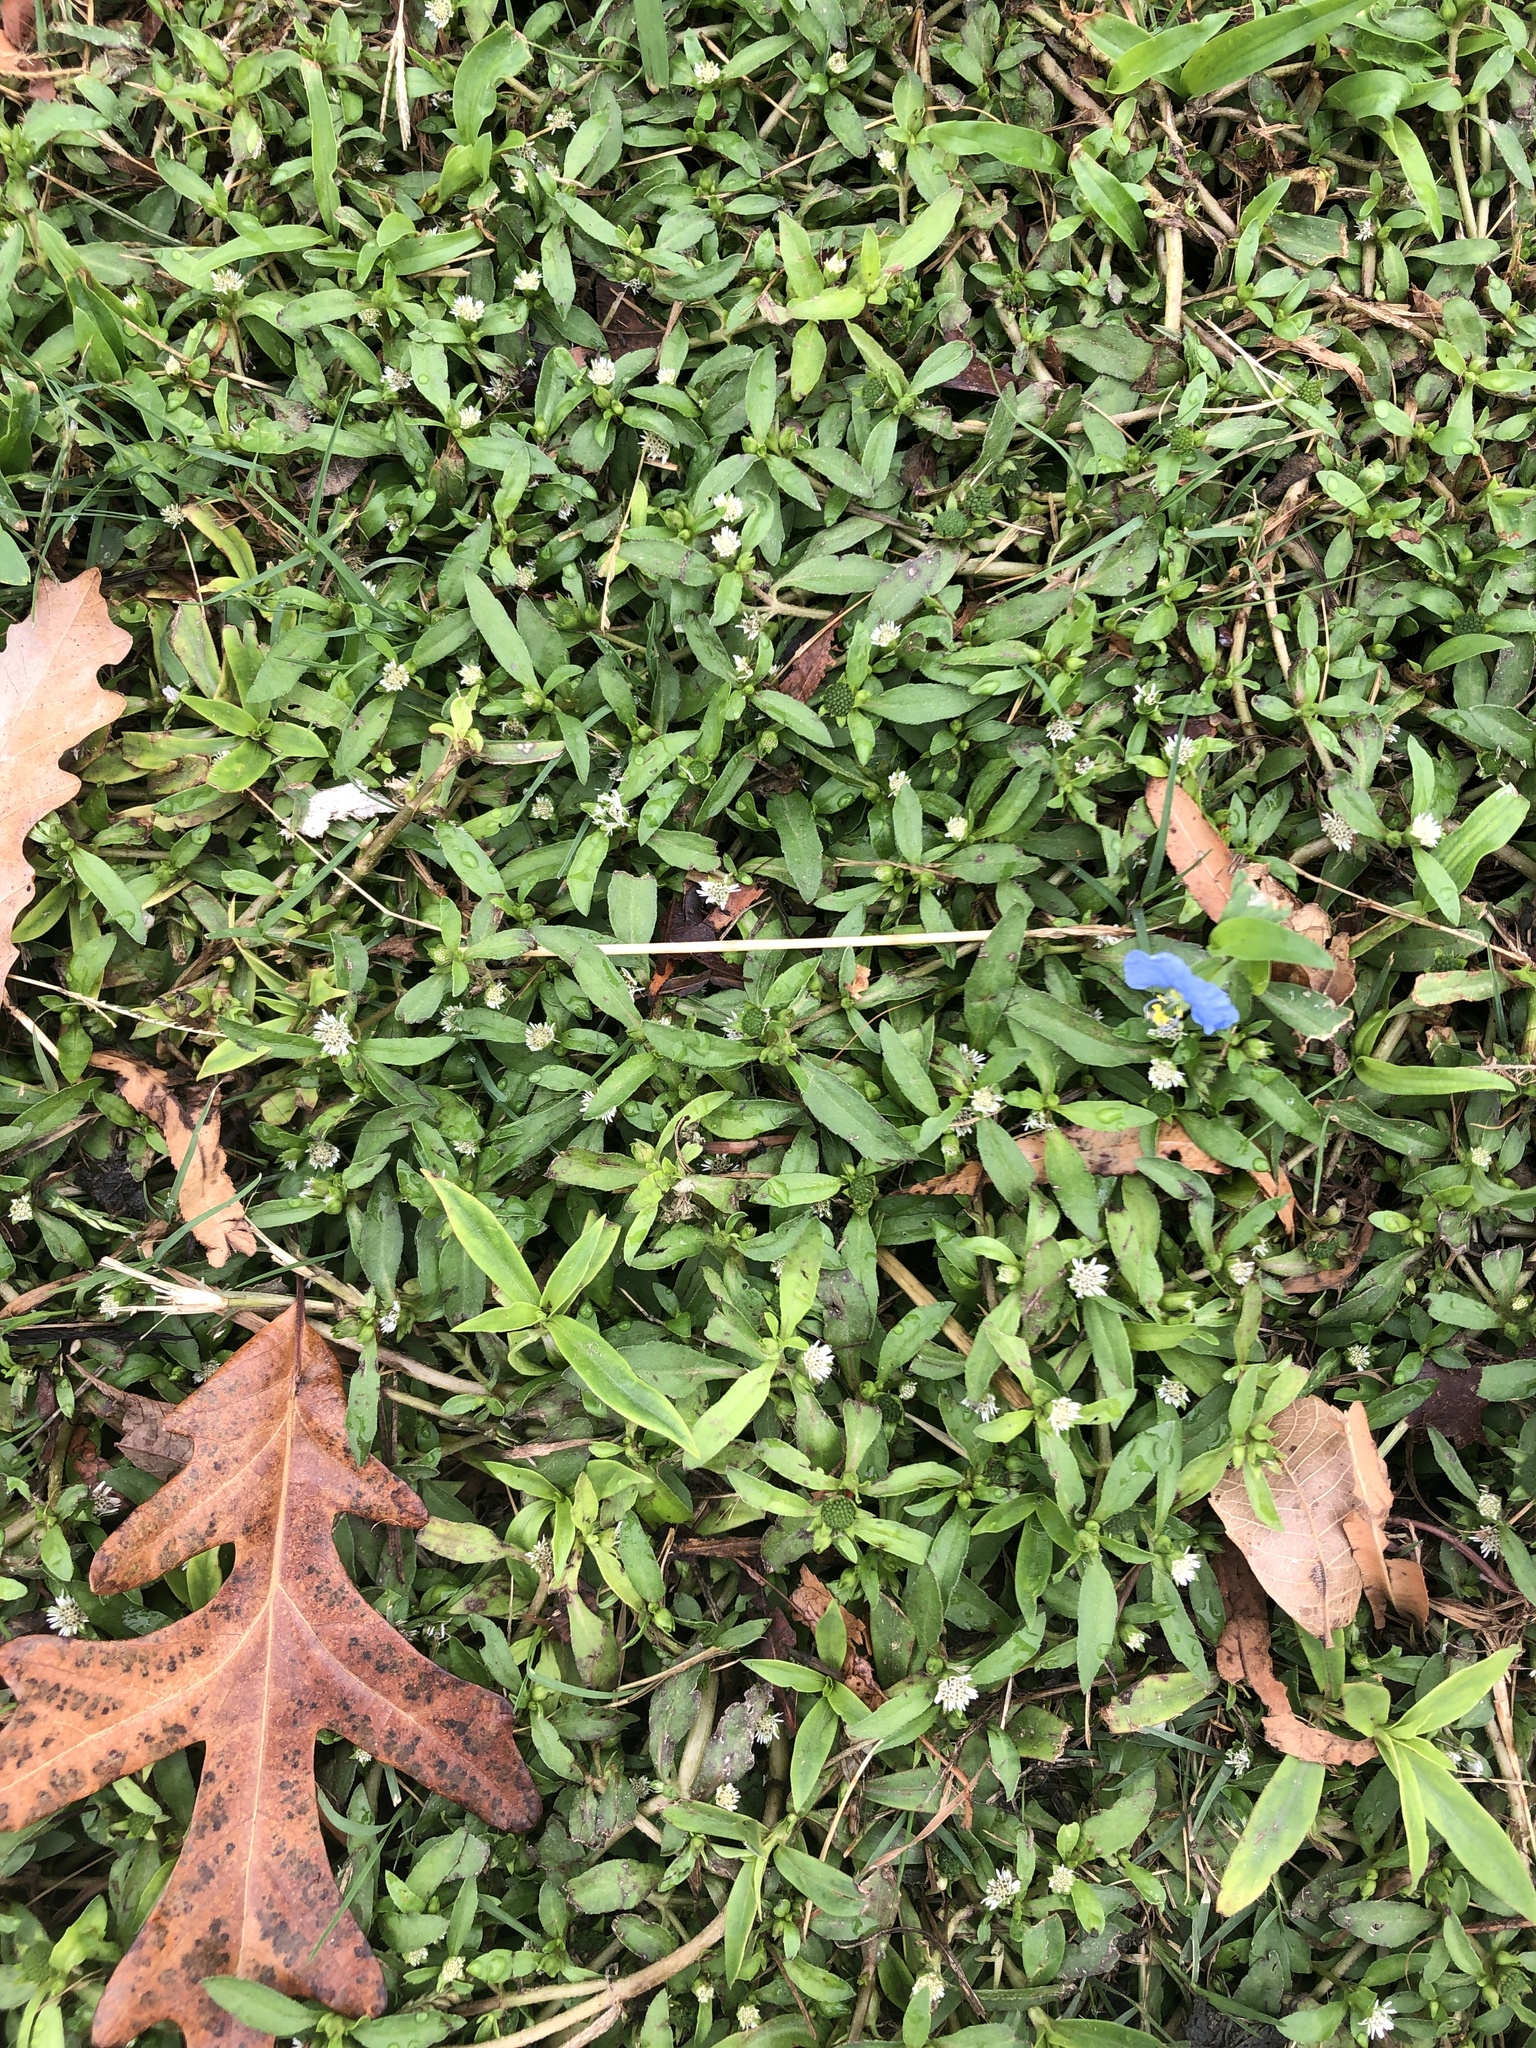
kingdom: Plantae
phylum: Tracheophyta
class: Magnoliopsida
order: Asterales
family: Asteraceae
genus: Eclipta
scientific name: Eclipta prostrata
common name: False daisy
